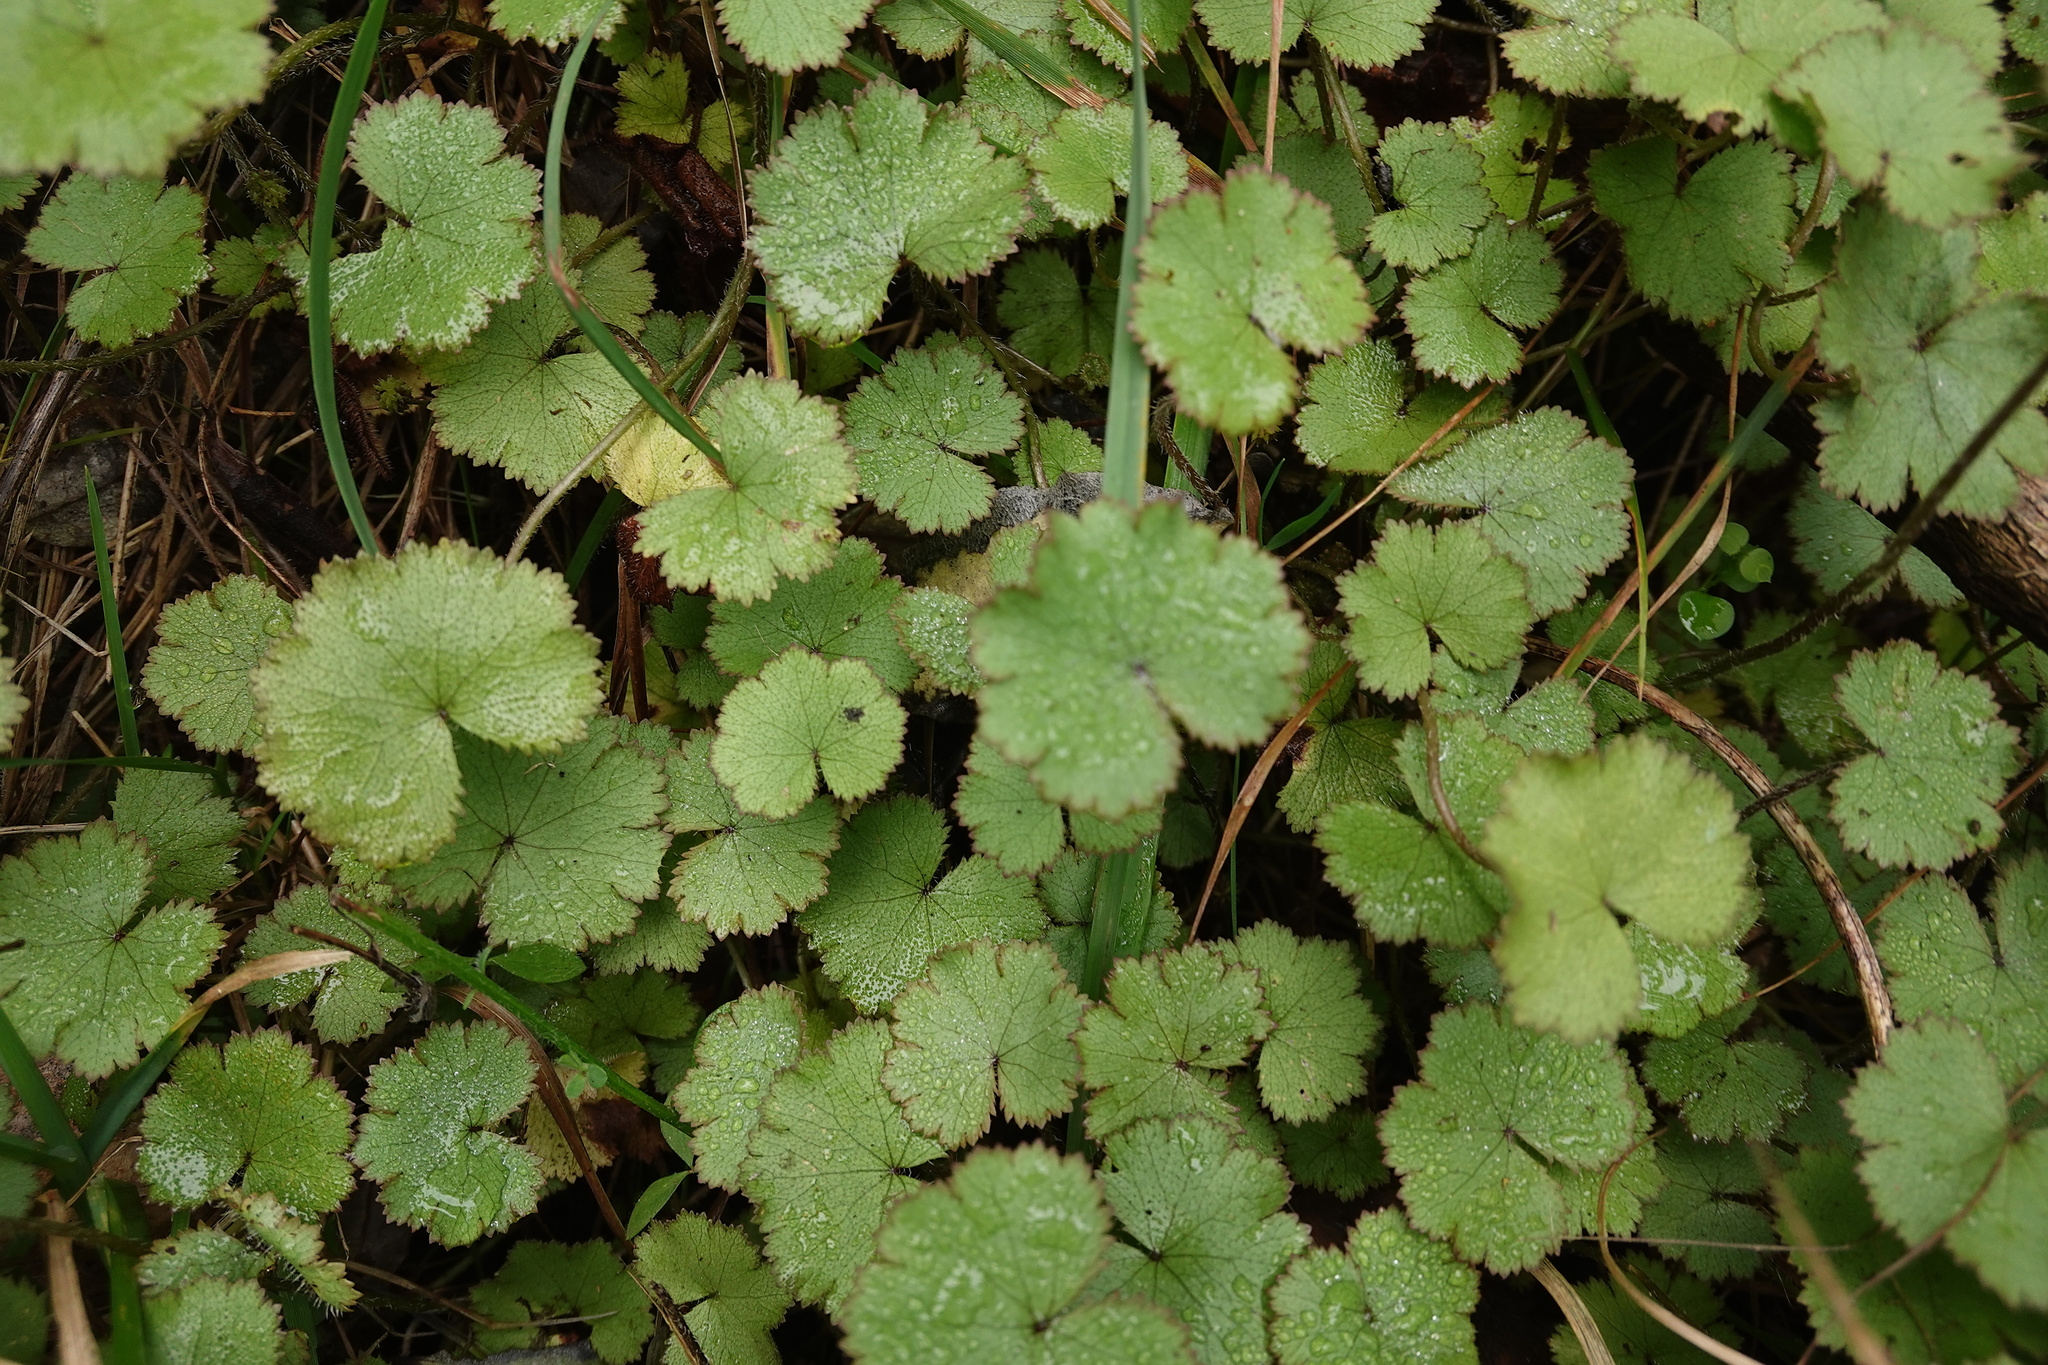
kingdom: Plantae
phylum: Tracheophyta
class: Magnoliopsida
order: Apiales
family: Araliaceae
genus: Hydrocotyle
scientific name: Hydrocotyle moschata
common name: Hairy pennywort
